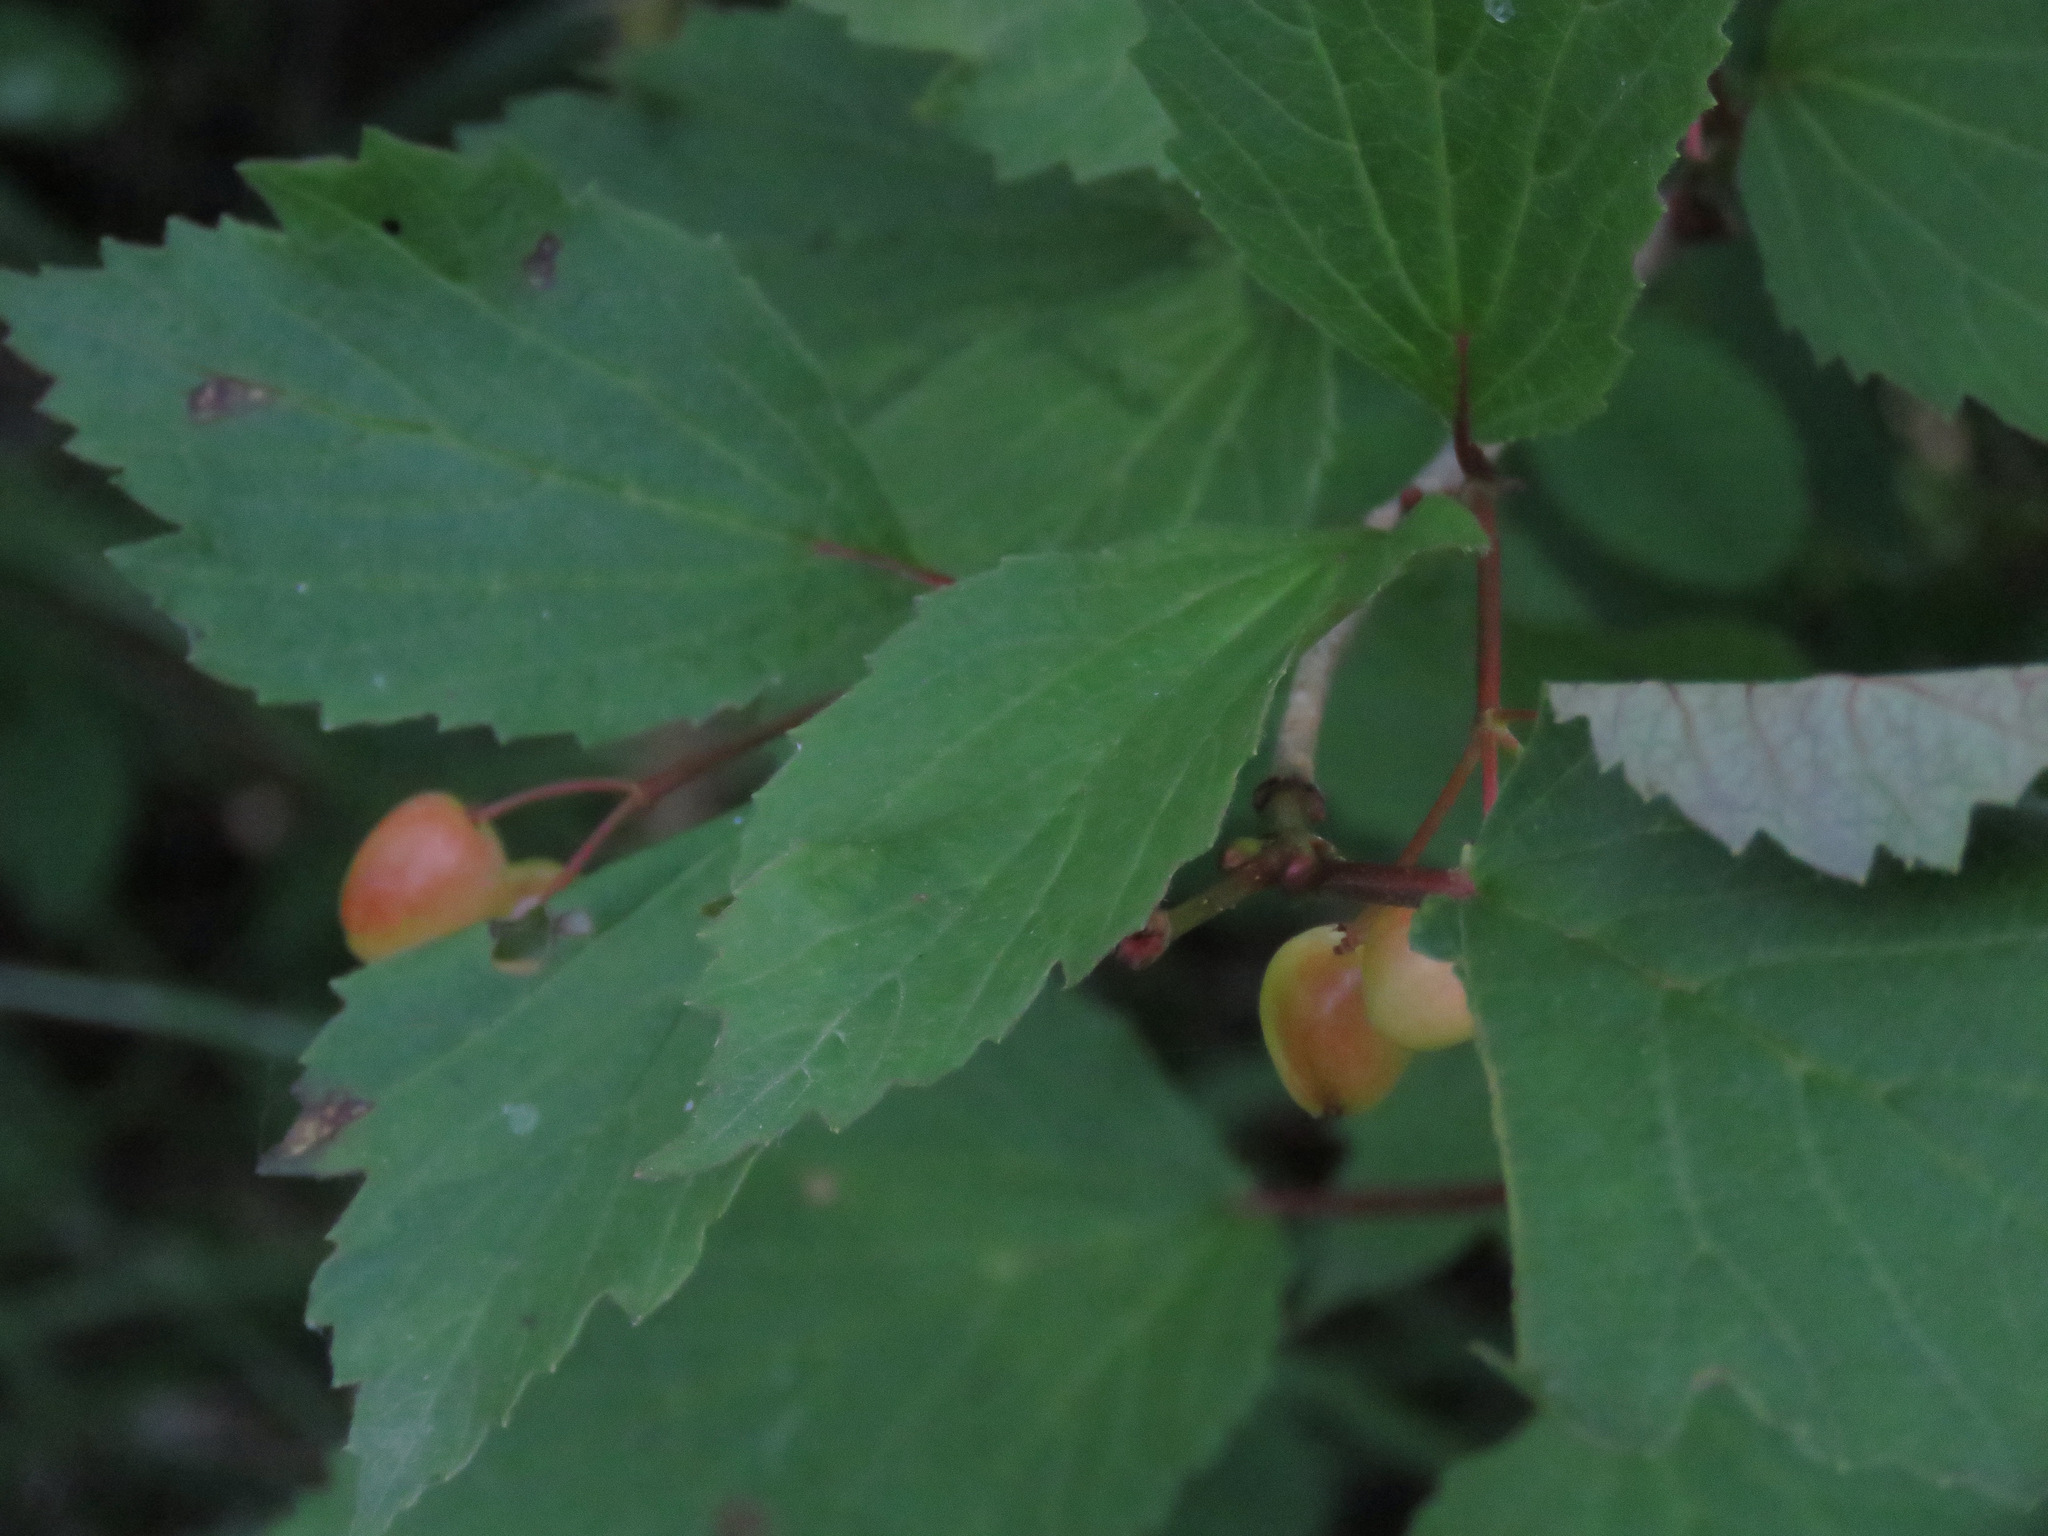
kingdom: Plantae
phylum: Tracheophyta
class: Magnoliopsida
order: Dipsacales
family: Viburnaceae
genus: Viburnum
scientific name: Viburnum edule
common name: Mooseberry
